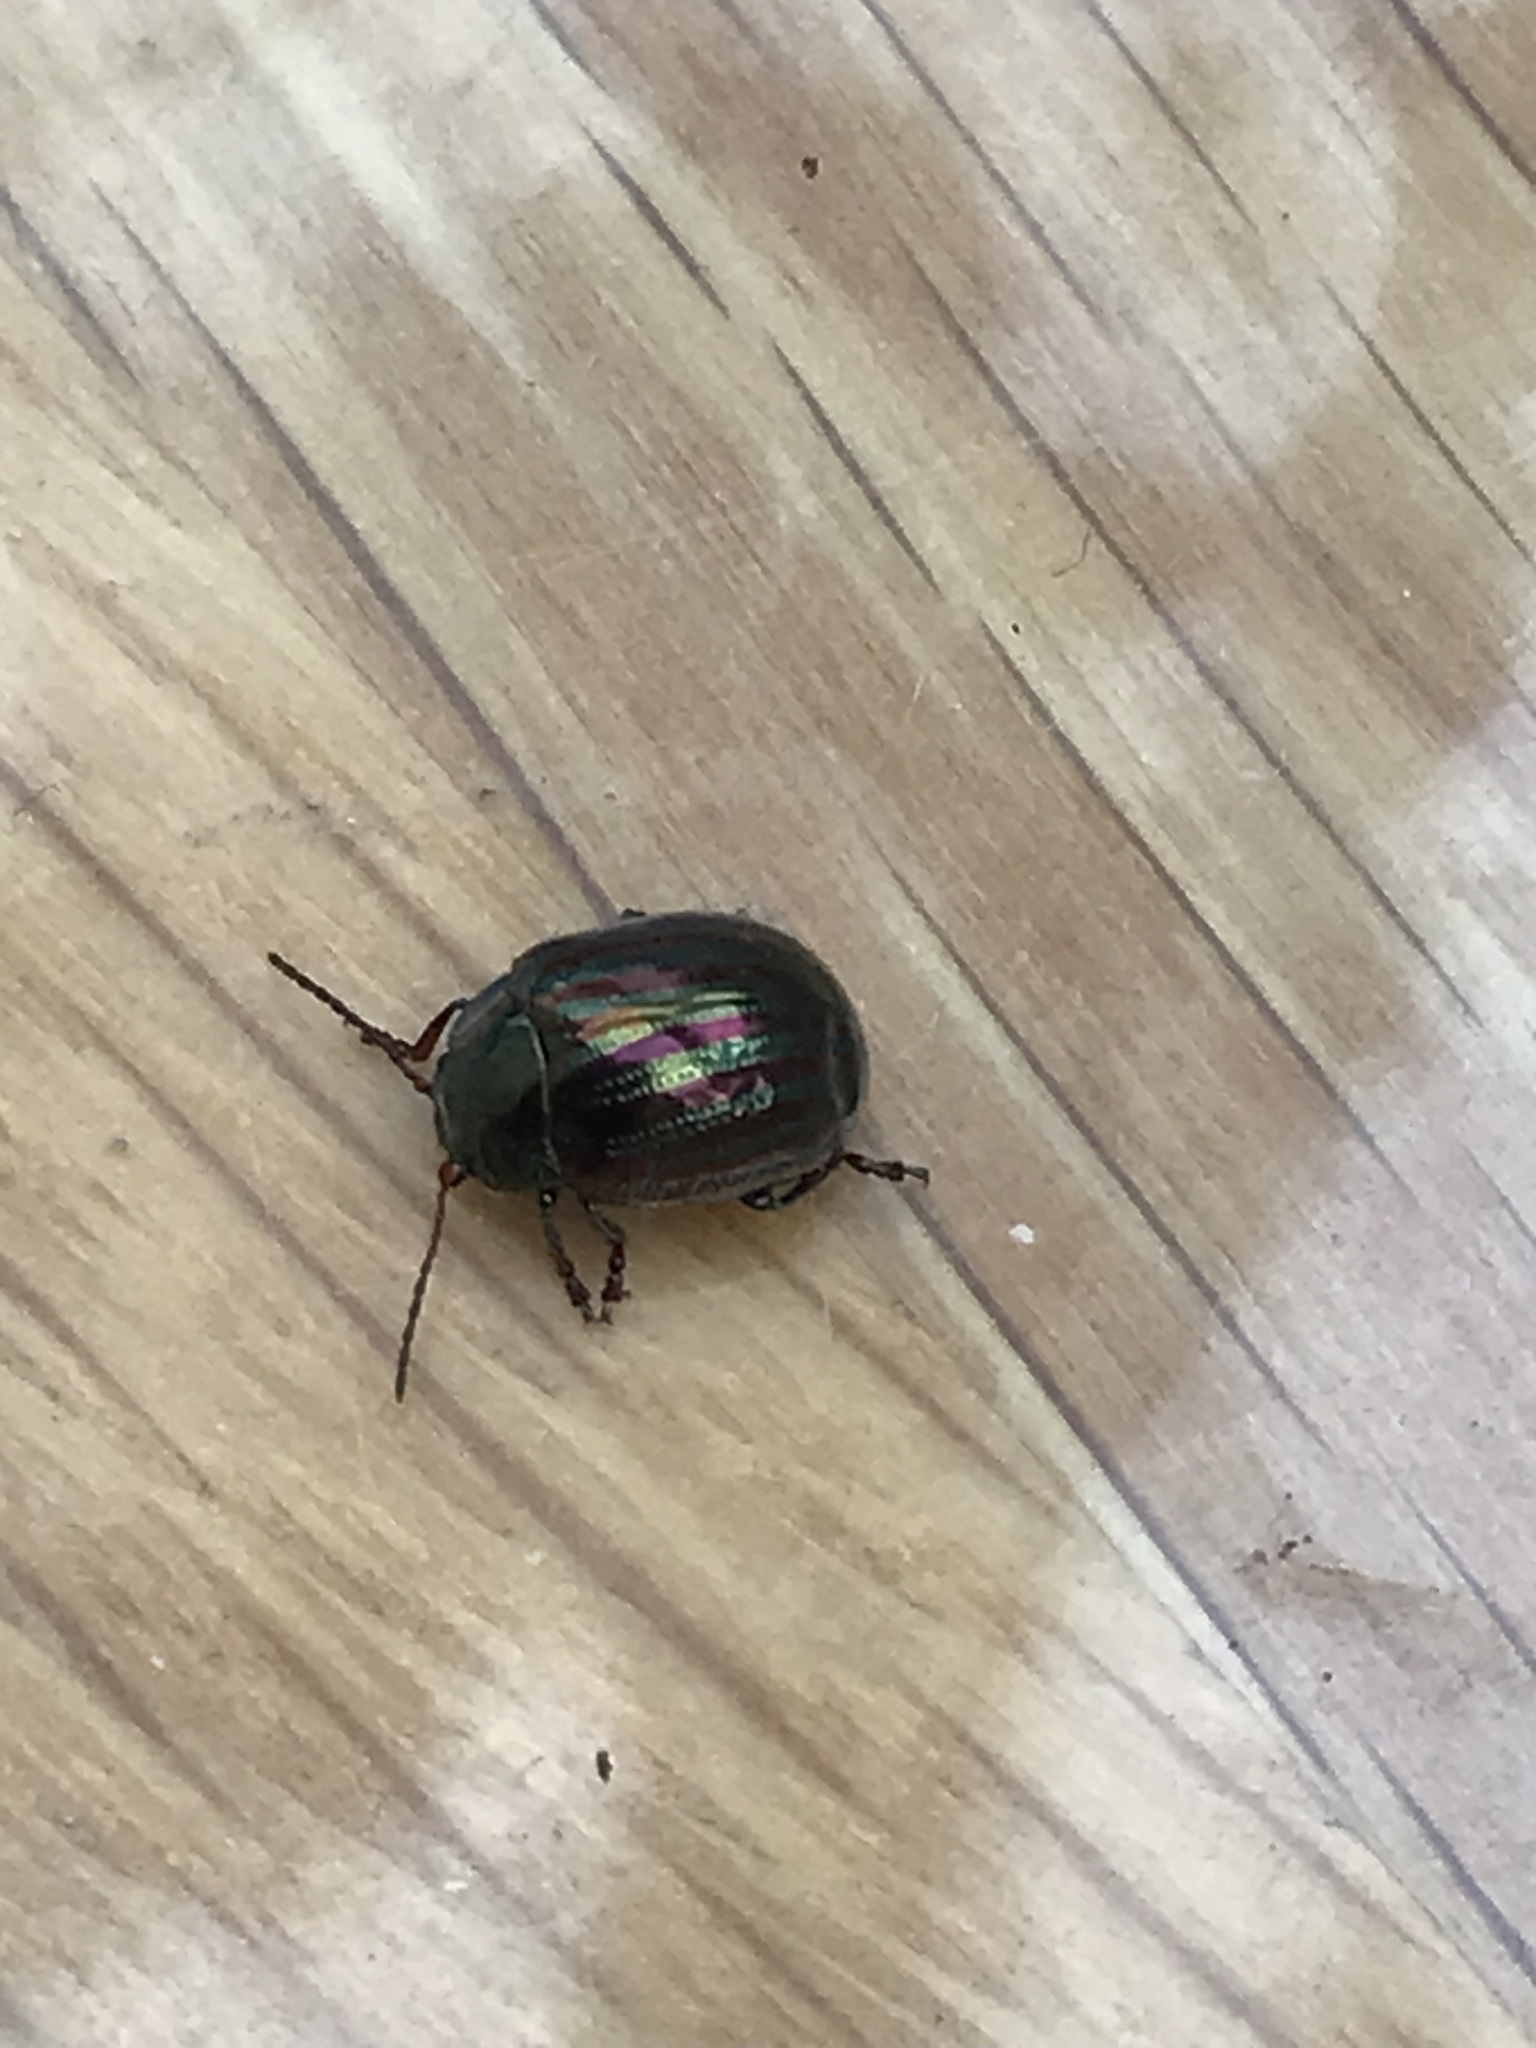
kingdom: Animalia
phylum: Arthropoda
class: Insecta
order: Coleoptera
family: Chrysomelidae
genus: Chrysolina
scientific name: Chrysolina americana
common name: Rosemary beetle
